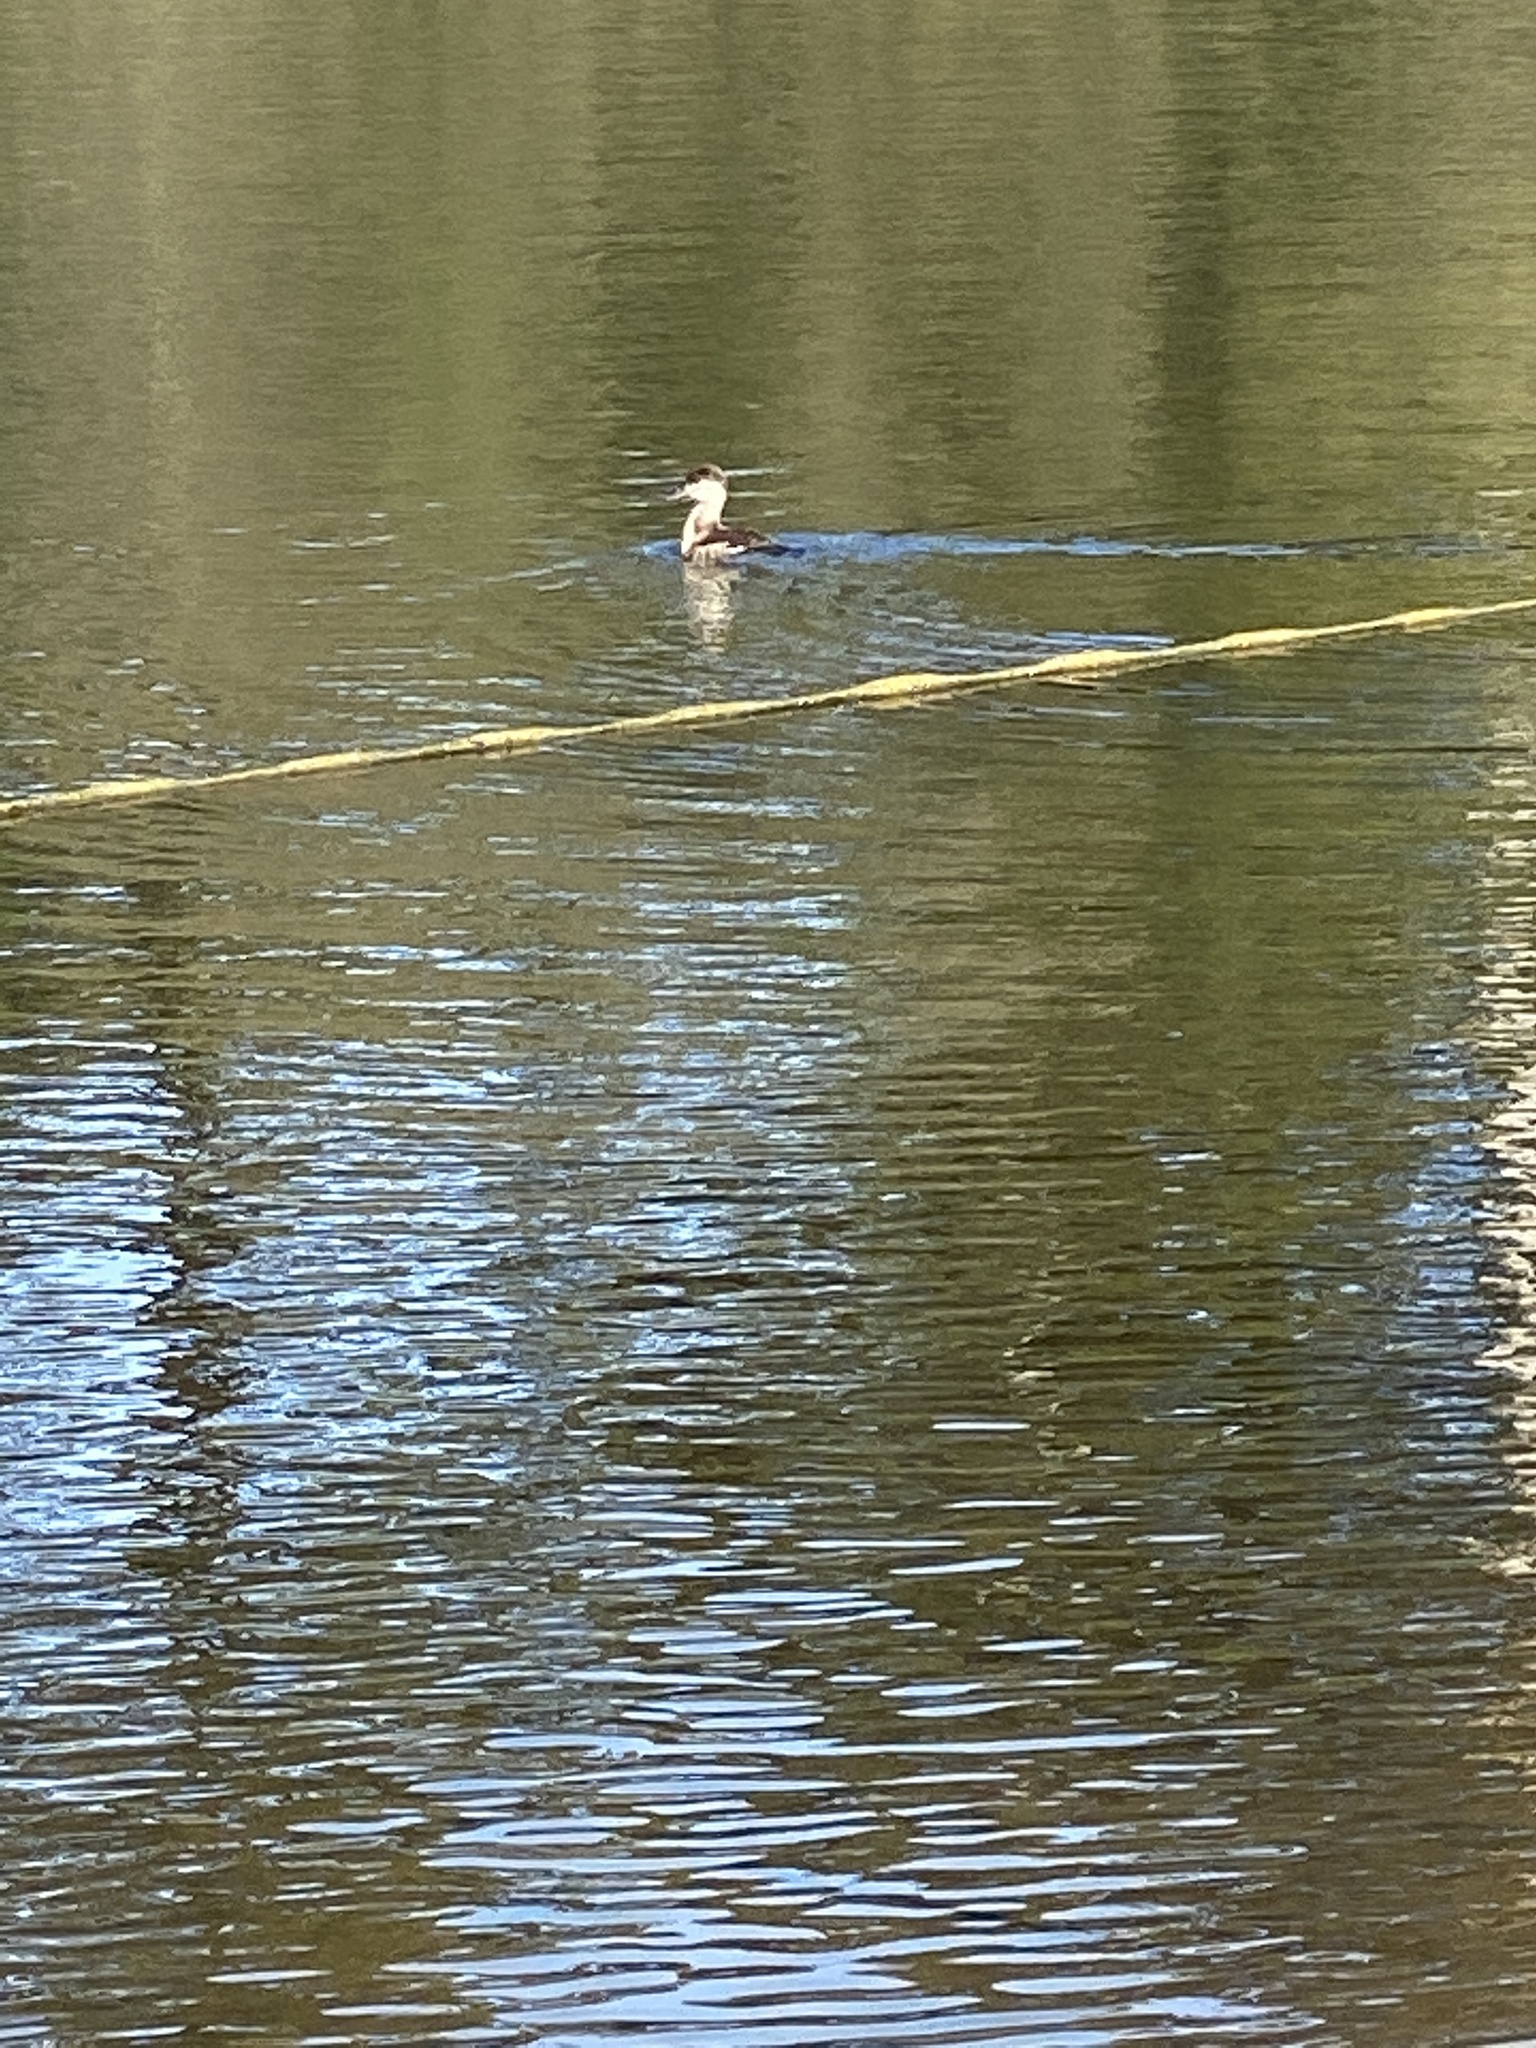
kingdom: Animalia
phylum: Chordata
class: Aves
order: Anseriformes
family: Anatidae
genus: Oxyura
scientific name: Oxyura jamaicensis
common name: Ruddy duck
